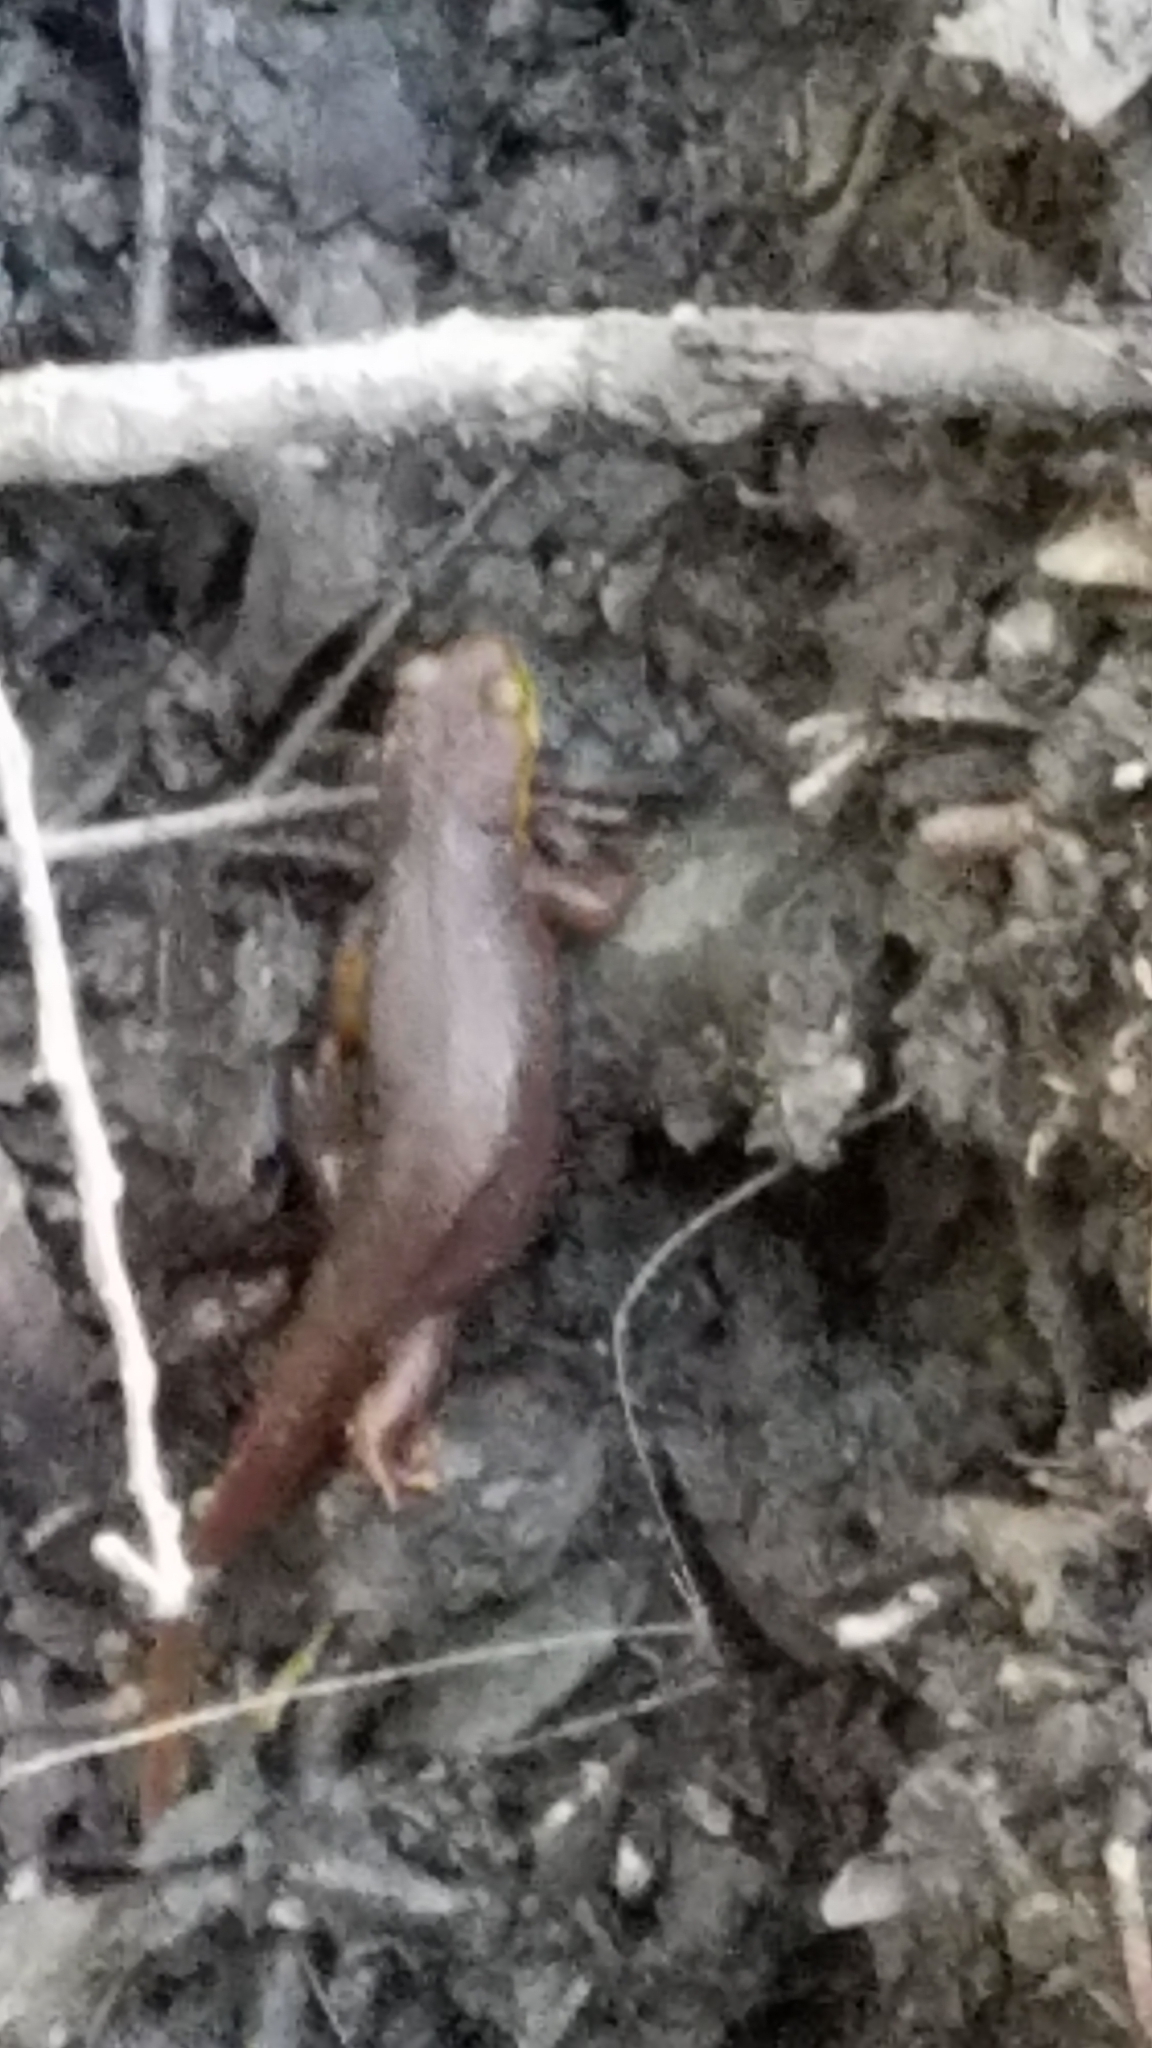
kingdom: Animalia
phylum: Chordata
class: Amphibia
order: Caudata
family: Salamandridae
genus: Taricha
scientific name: Taricha torosa
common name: California newt
